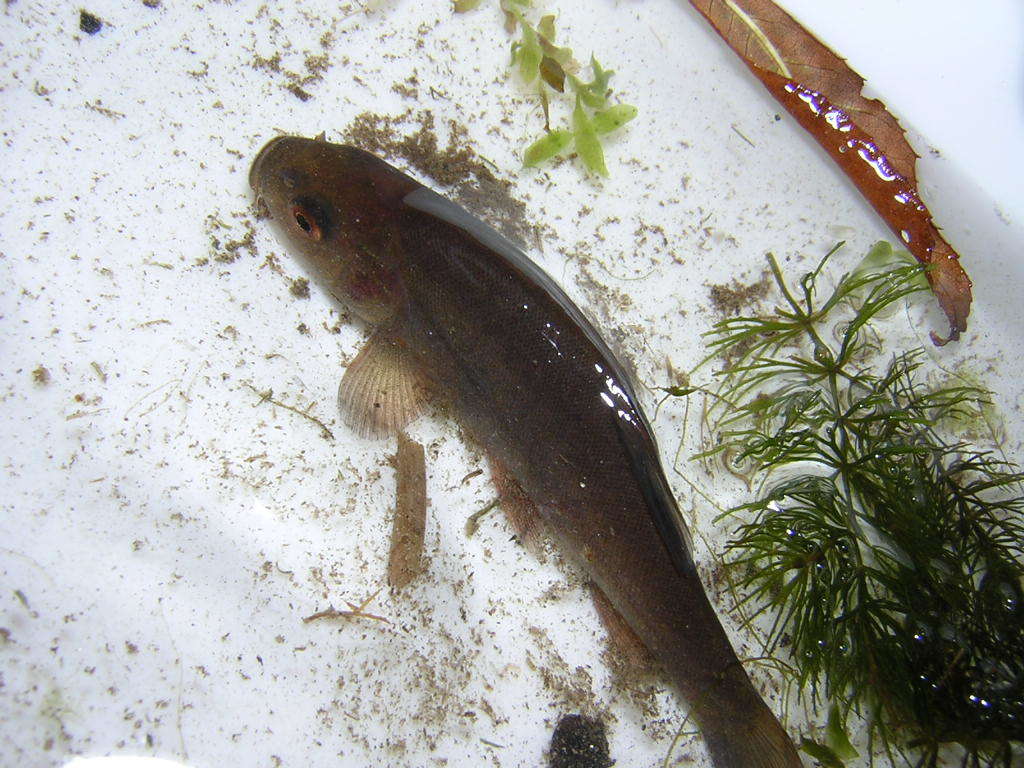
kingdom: Animalia
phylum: Chordata
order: Cypriniformes
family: Cyprinidae
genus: Tinca
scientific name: Tinca tinca
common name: Tench
